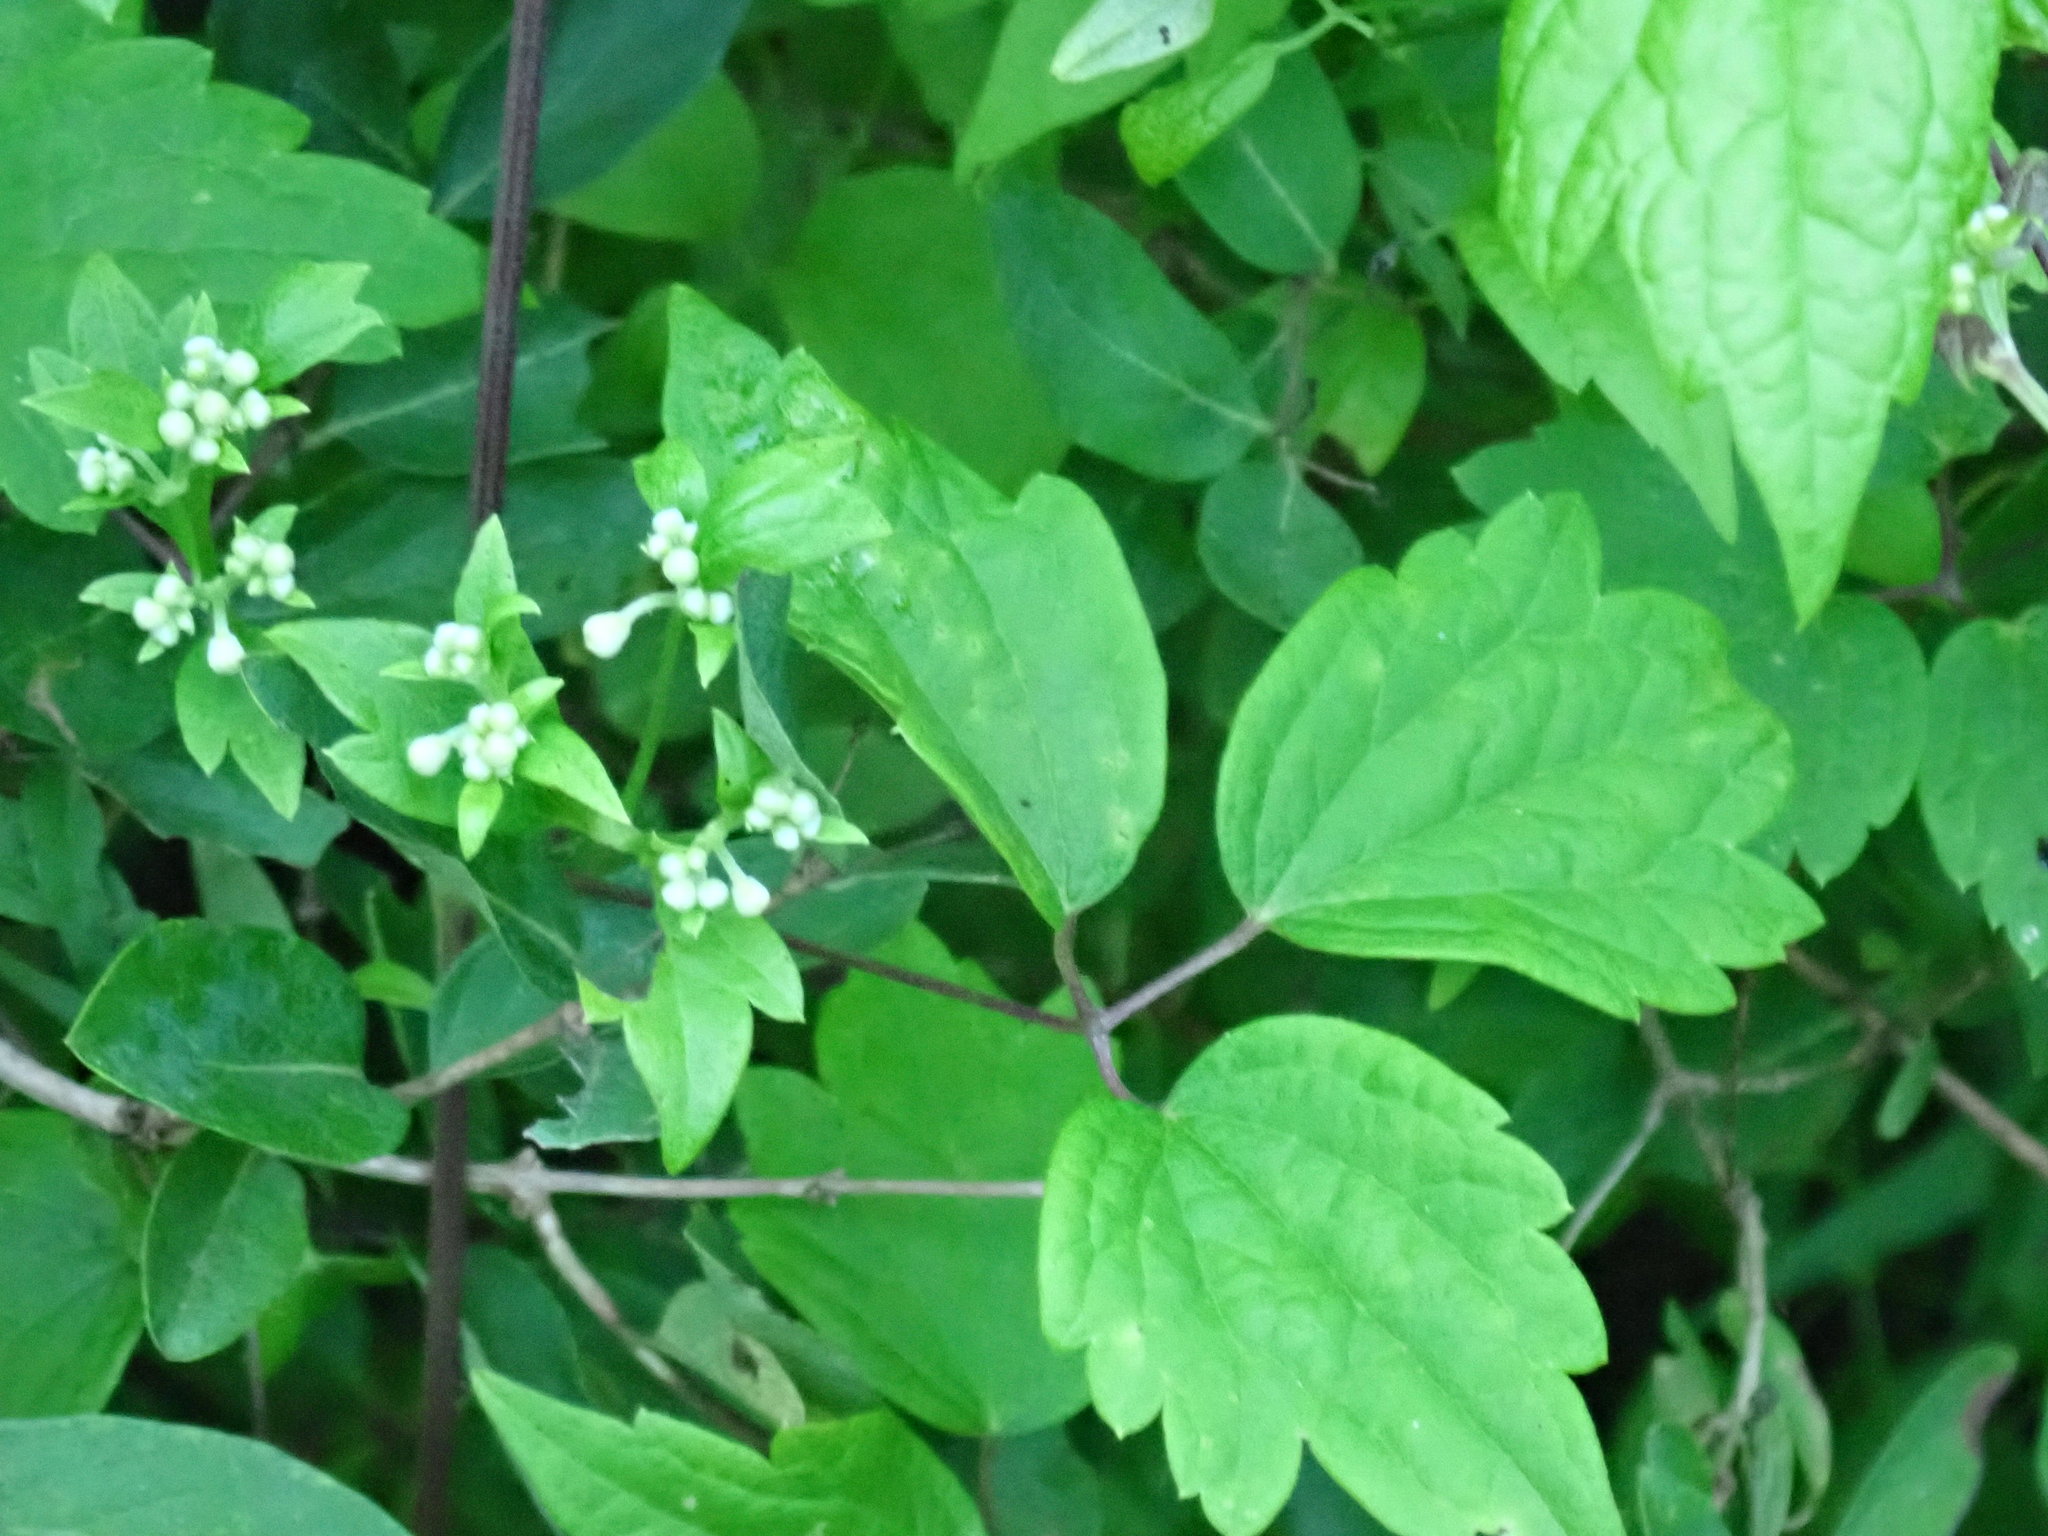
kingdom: Plantae
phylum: Tracheophyta
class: Magnoliopsida
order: Ranunculales
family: Ranunculaceae
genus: Clematis
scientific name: Clematis virginiana
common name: Virgin's-bower
